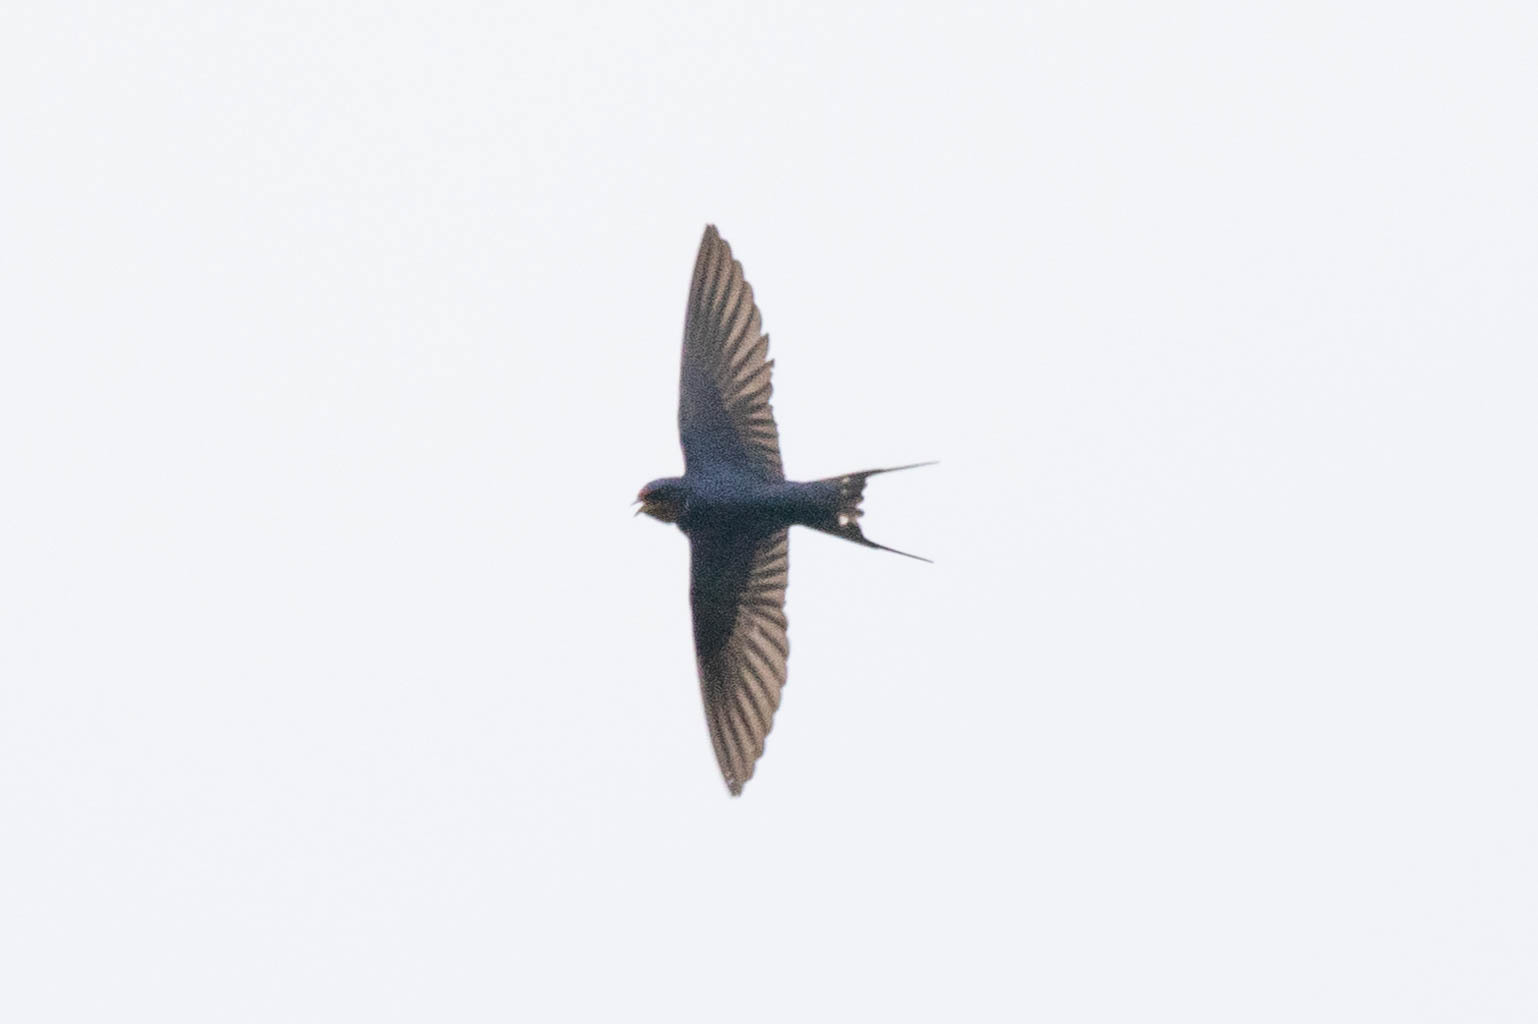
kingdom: Animalia
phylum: Chordata
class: Aves
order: Passeriformes
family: Hirundinidae
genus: Hirundo
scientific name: Hirundo rustica
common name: Barn swallow
